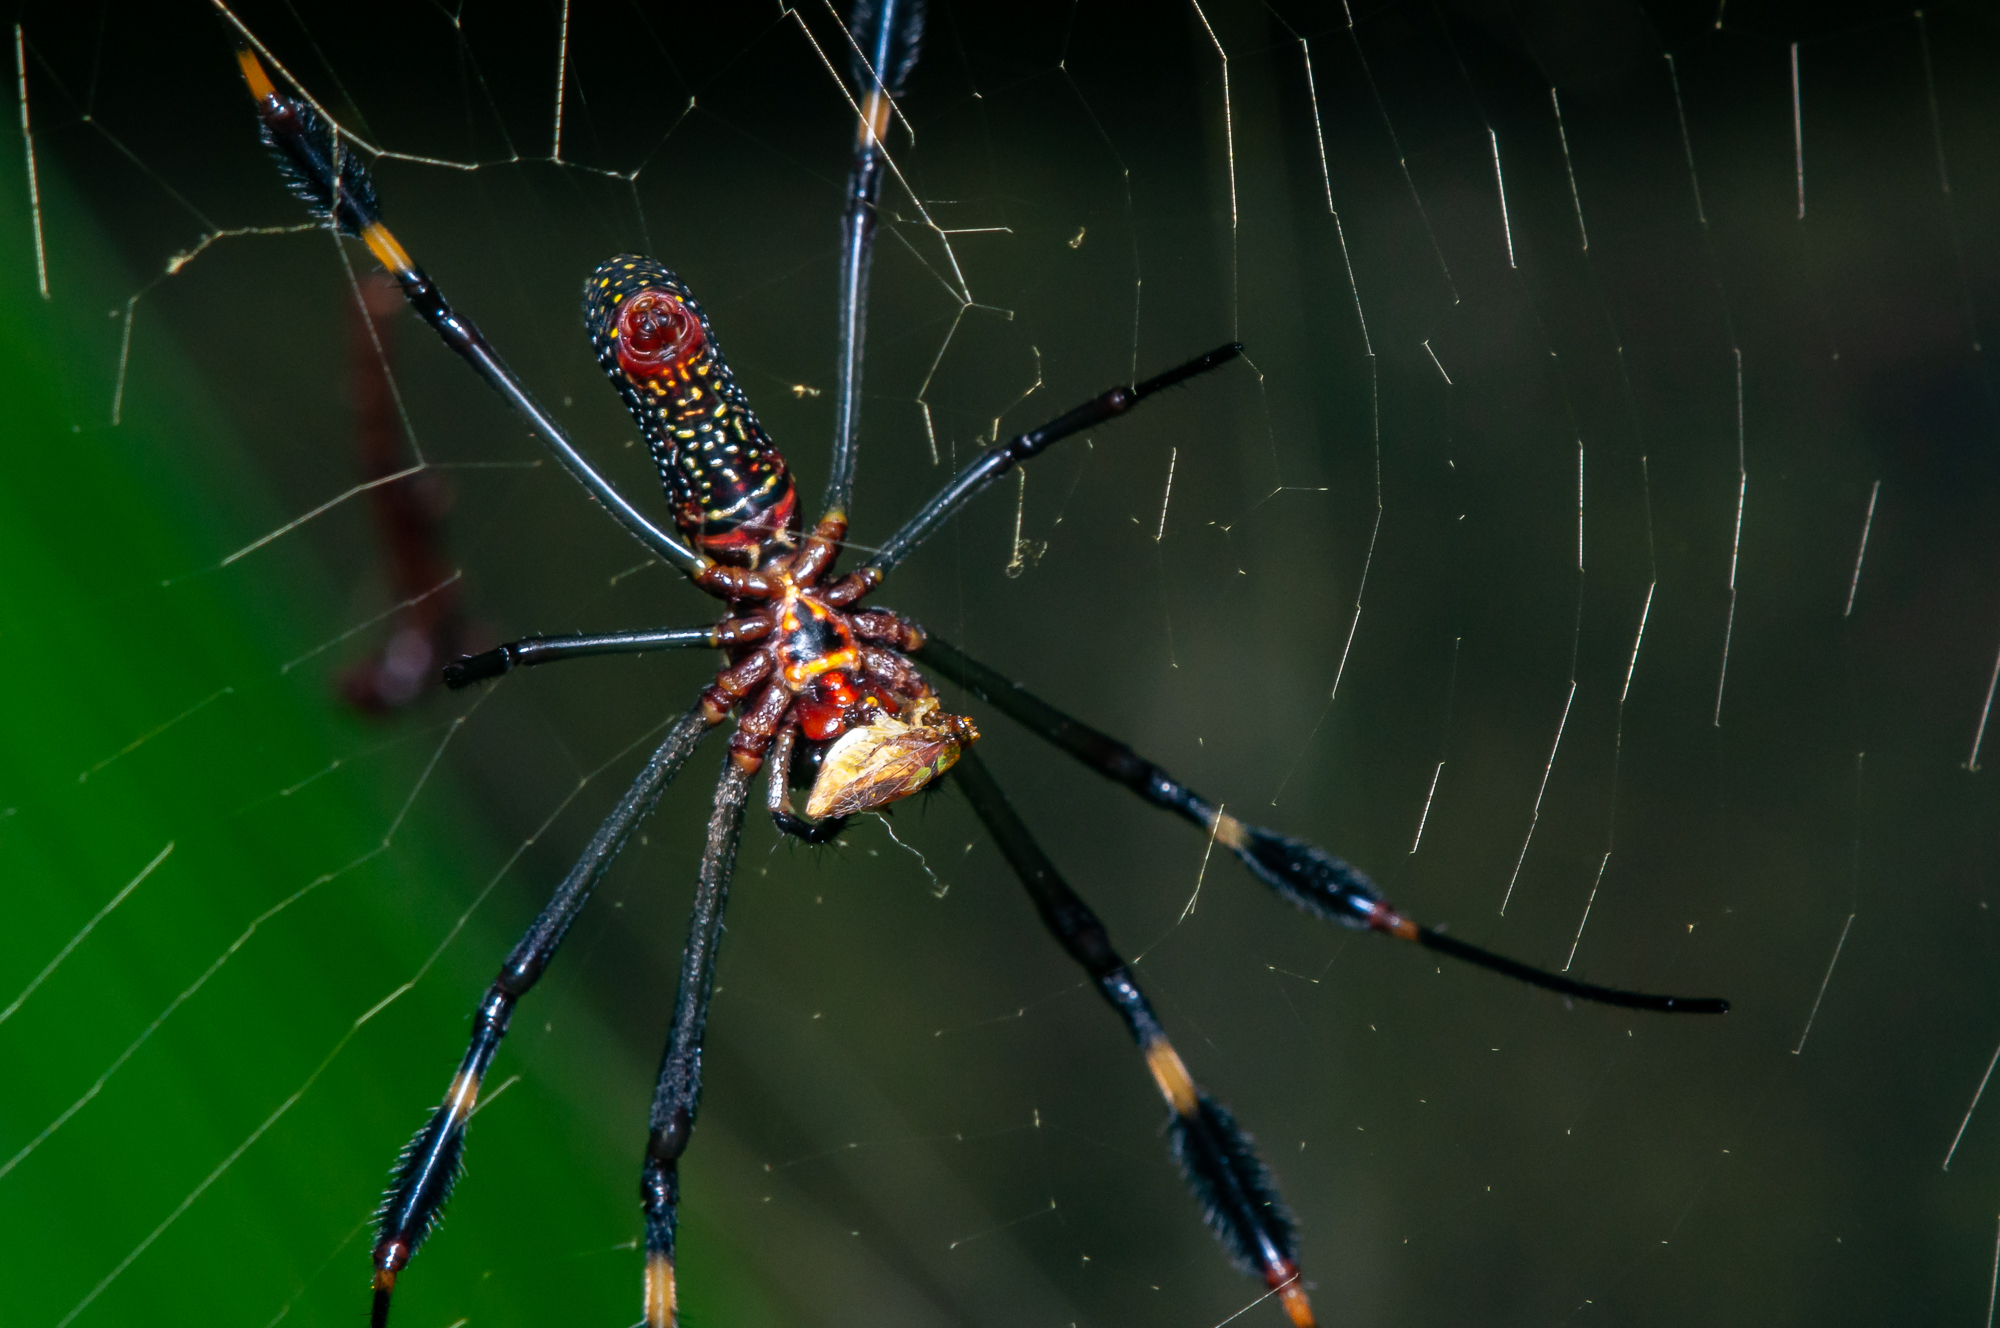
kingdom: Animalia
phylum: Arthropoda
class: Arachnida
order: Araneae
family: Araneidae
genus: Trichonephila
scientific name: Trichonephila clavipes
